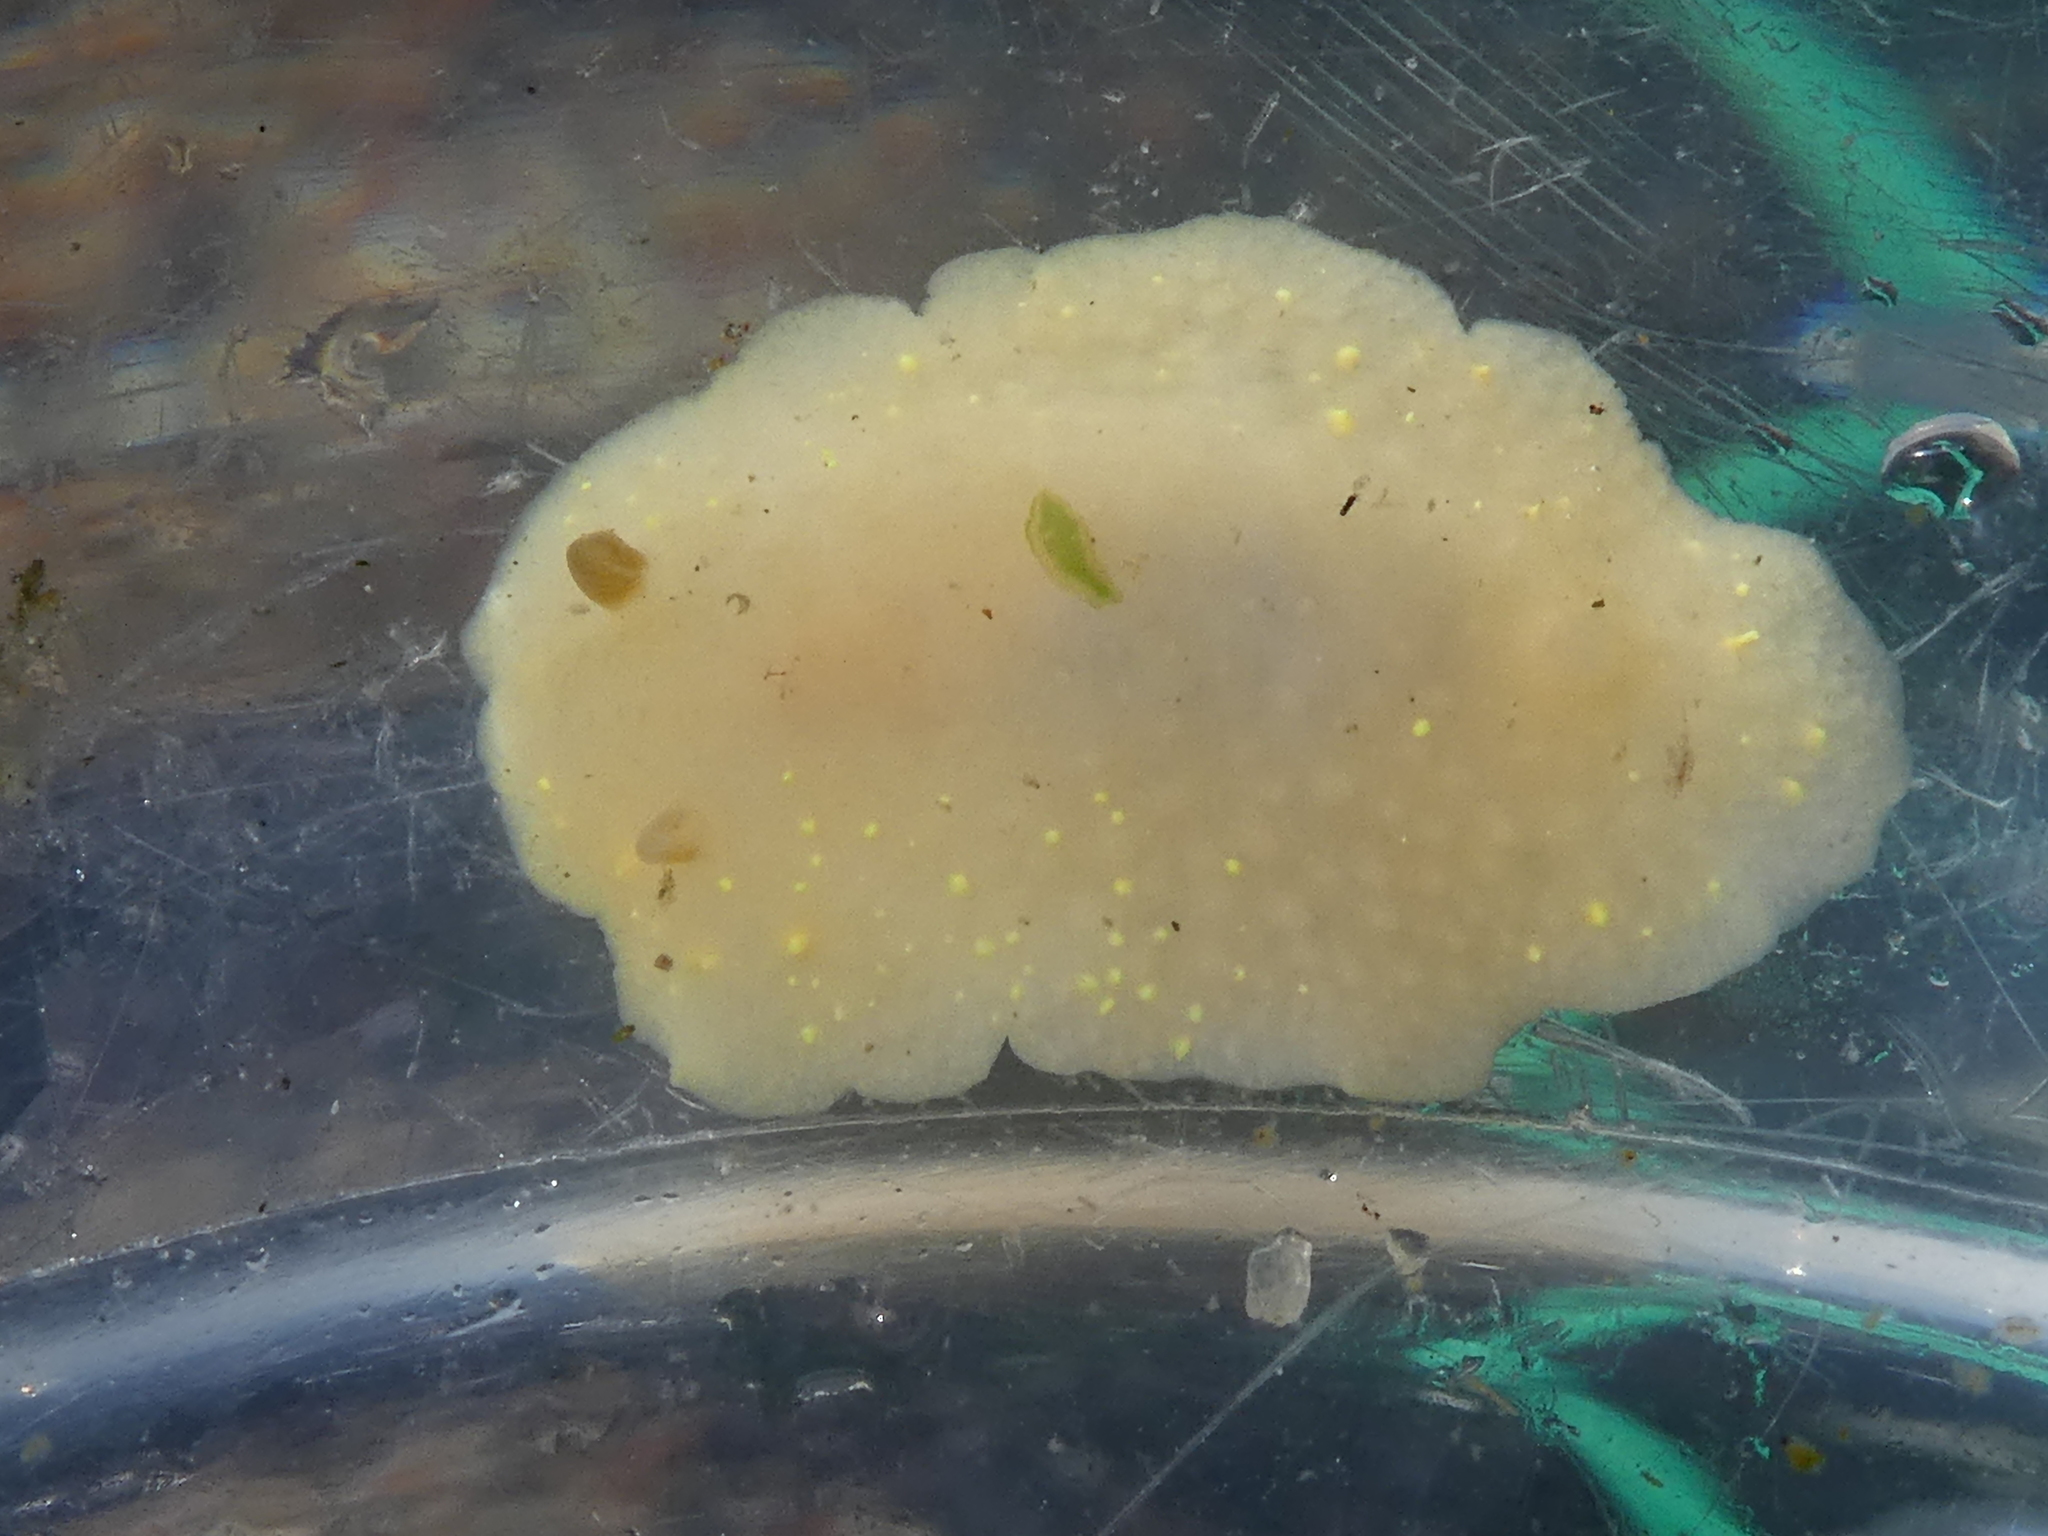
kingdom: Animalia
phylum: Mollusca
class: Gastropoda
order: Nudibranchia
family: Cadlinidae
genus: Cadlina
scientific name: Cadlina modesta
